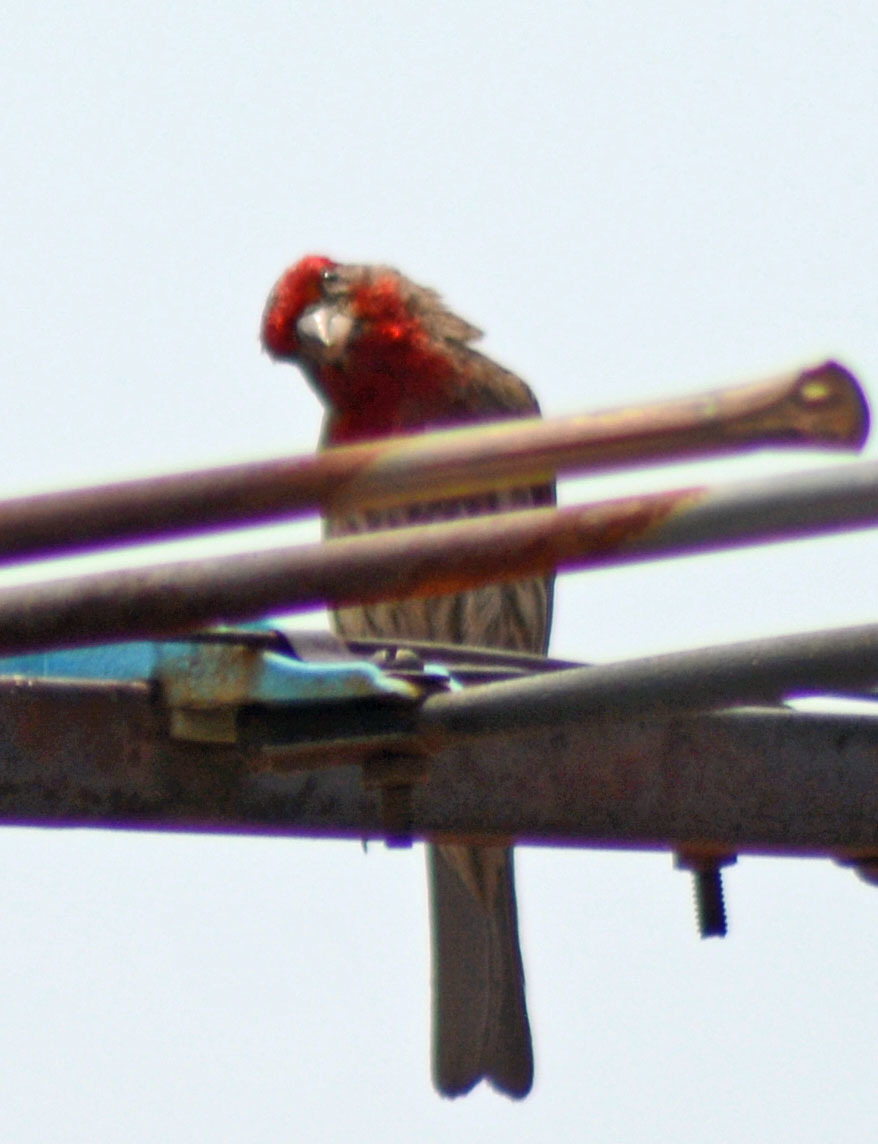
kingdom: Animalia
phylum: Chordata
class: Aves
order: Passeriformes
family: Fringillidae
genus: Haemorhous
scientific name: Haemorhous mexicanus
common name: House finch
